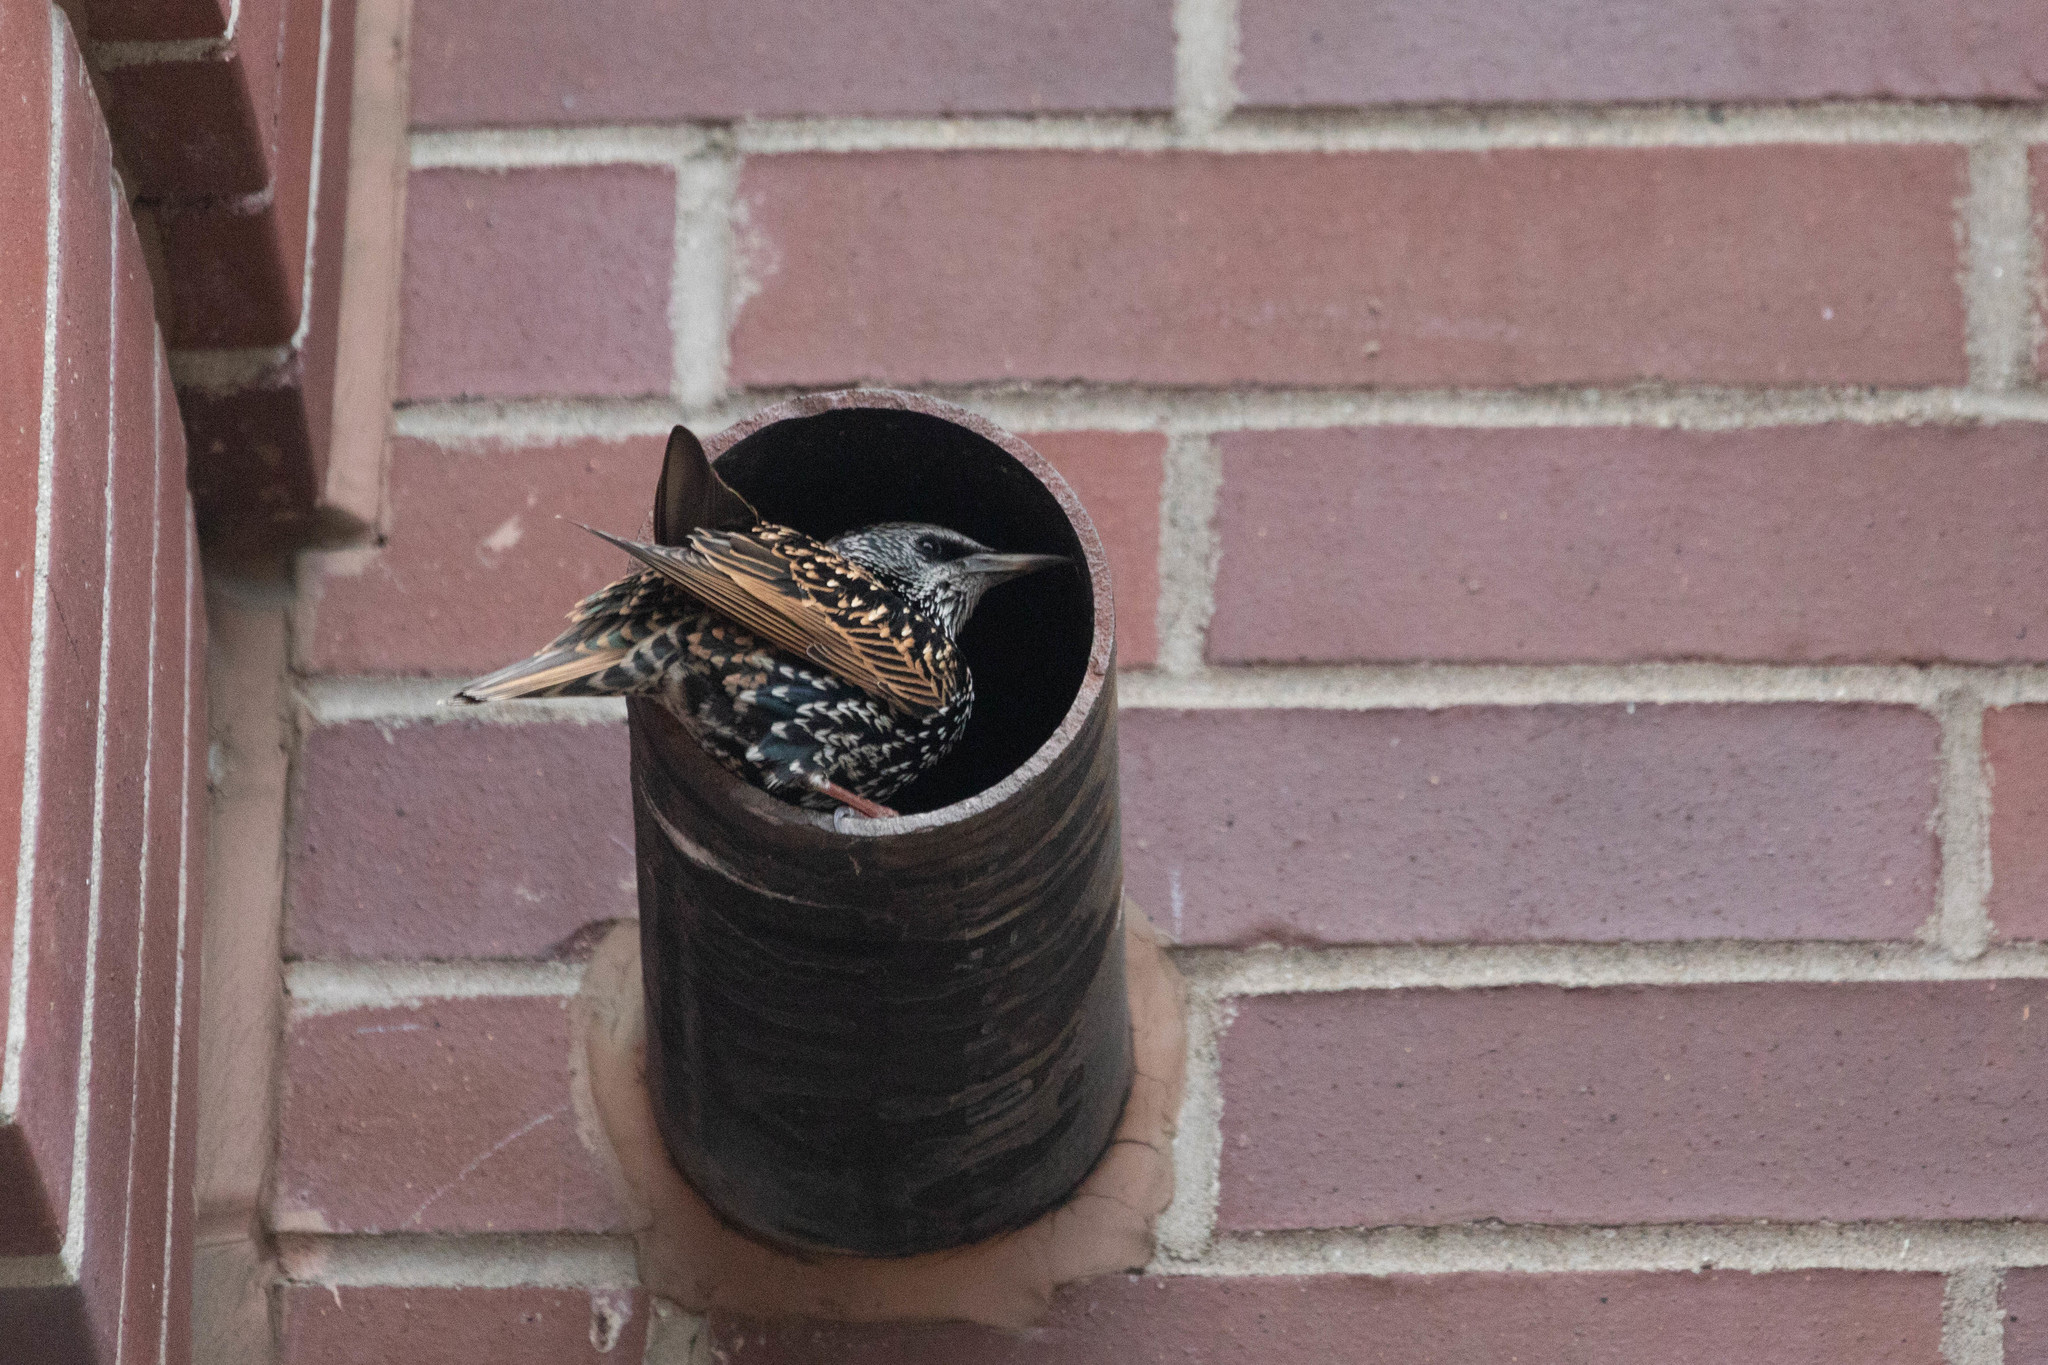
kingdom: Animalia
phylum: Chordata
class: Aves
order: Passeriformes
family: Sturnidae
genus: Sturnus
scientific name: Sturnus vulgaris
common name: Common starling
